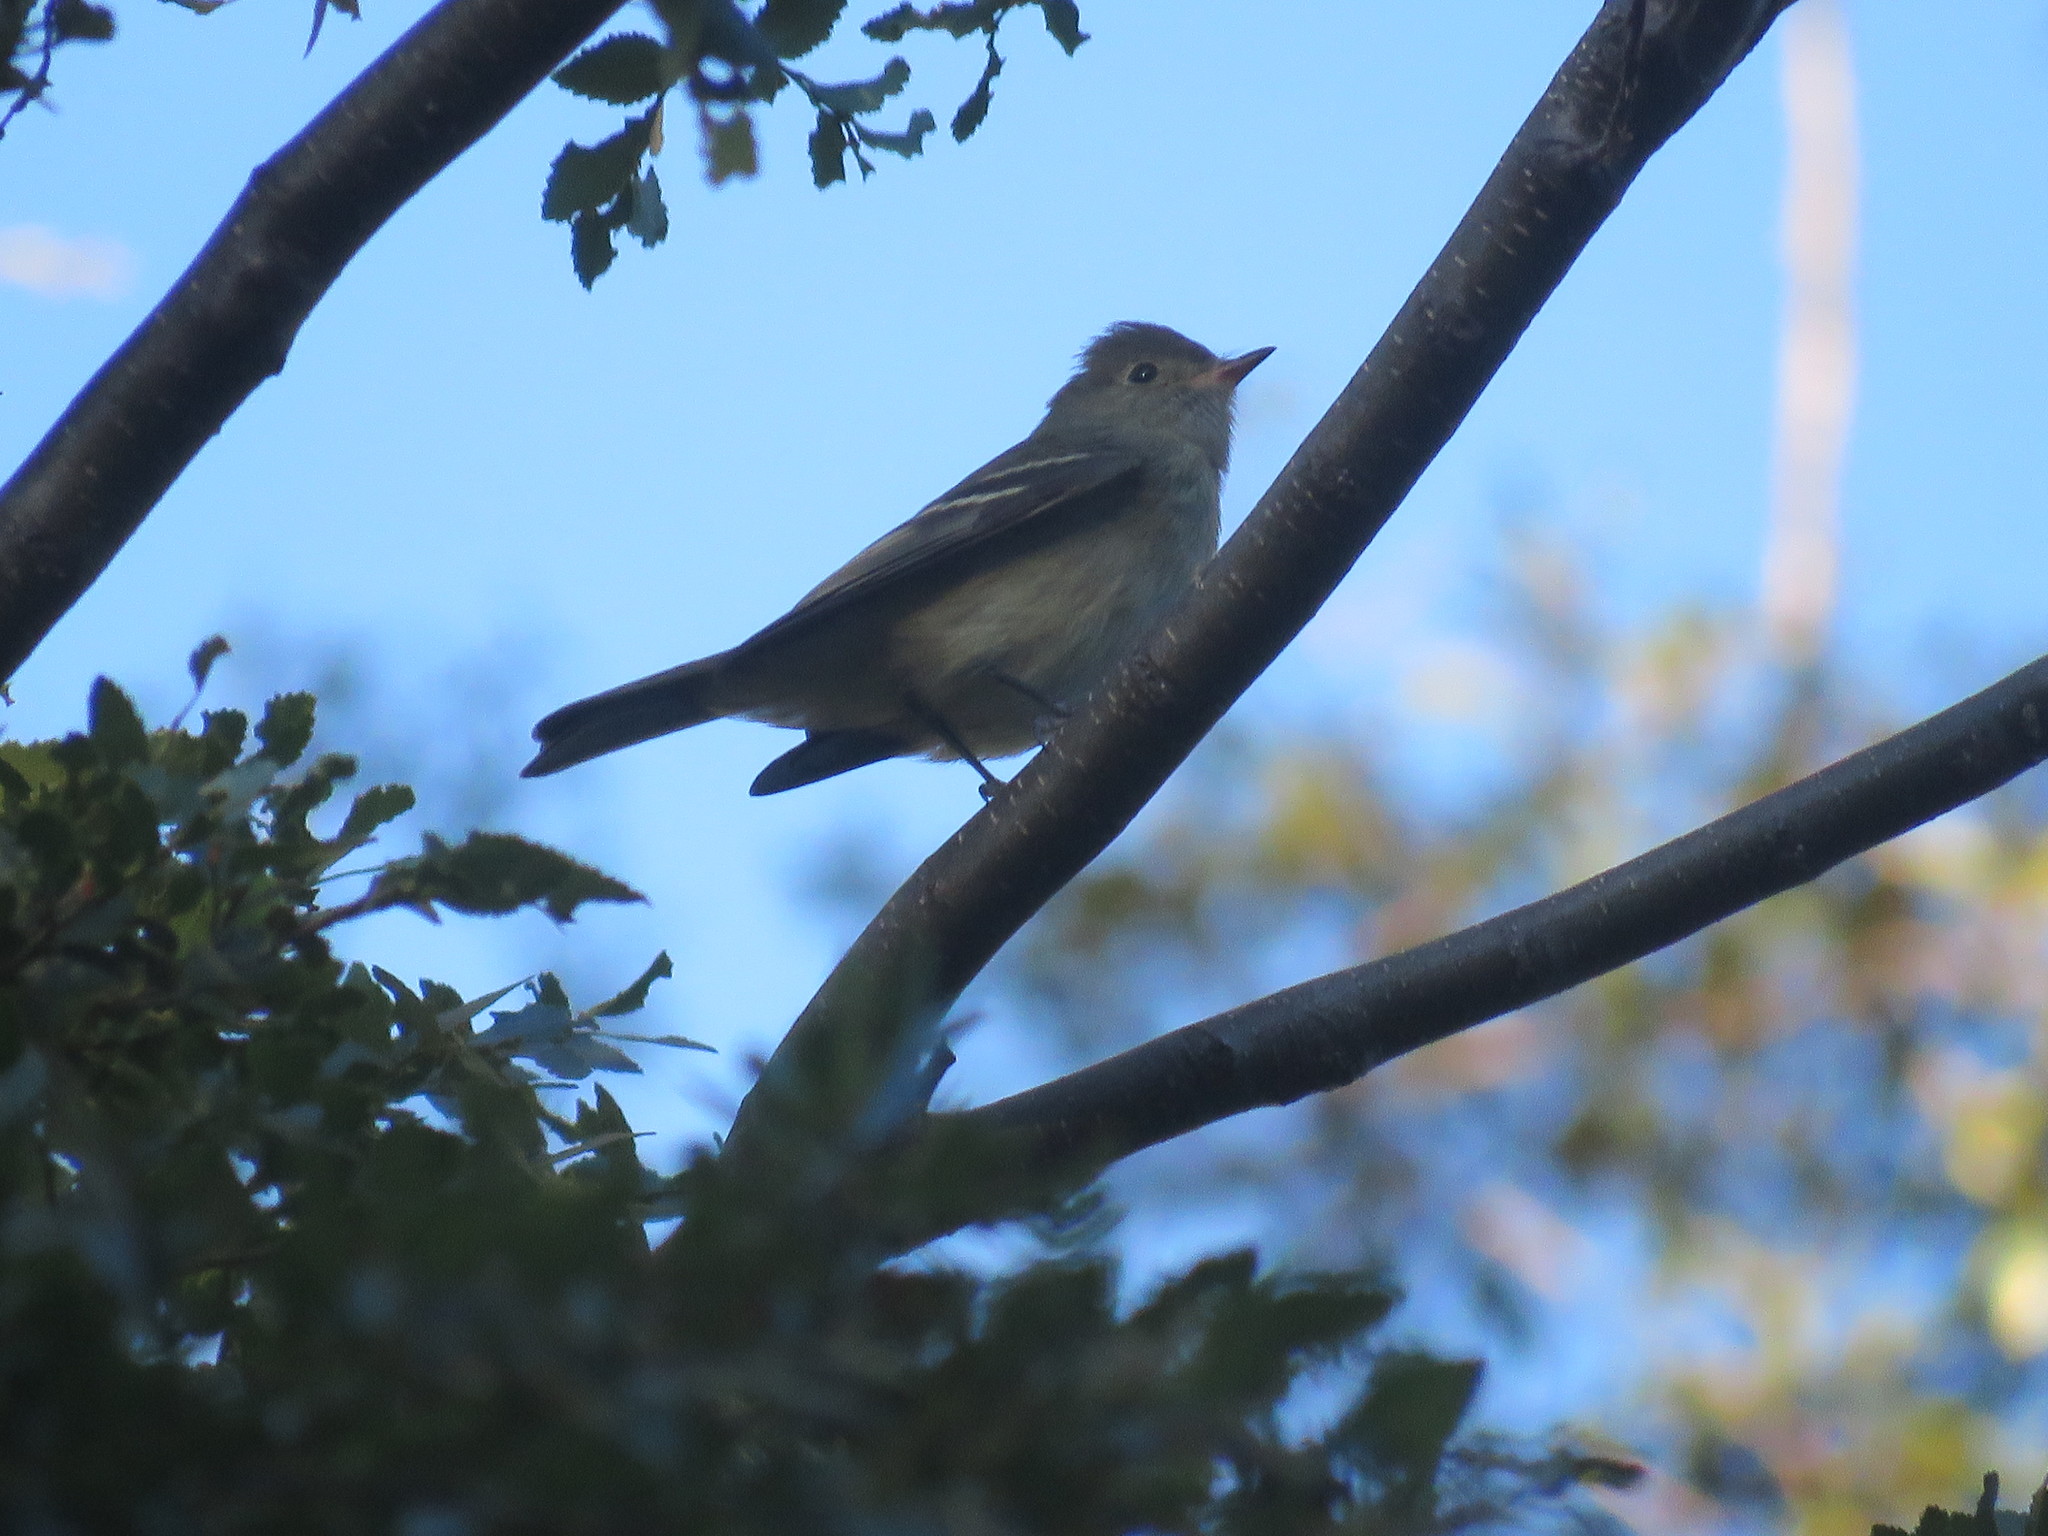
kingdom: Animalia
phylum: Chordata
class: Aves
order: Passeriformes
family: Tyrannidae
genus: Elaenia
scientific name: Elaenia albiceps
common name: White-crested elaenia
